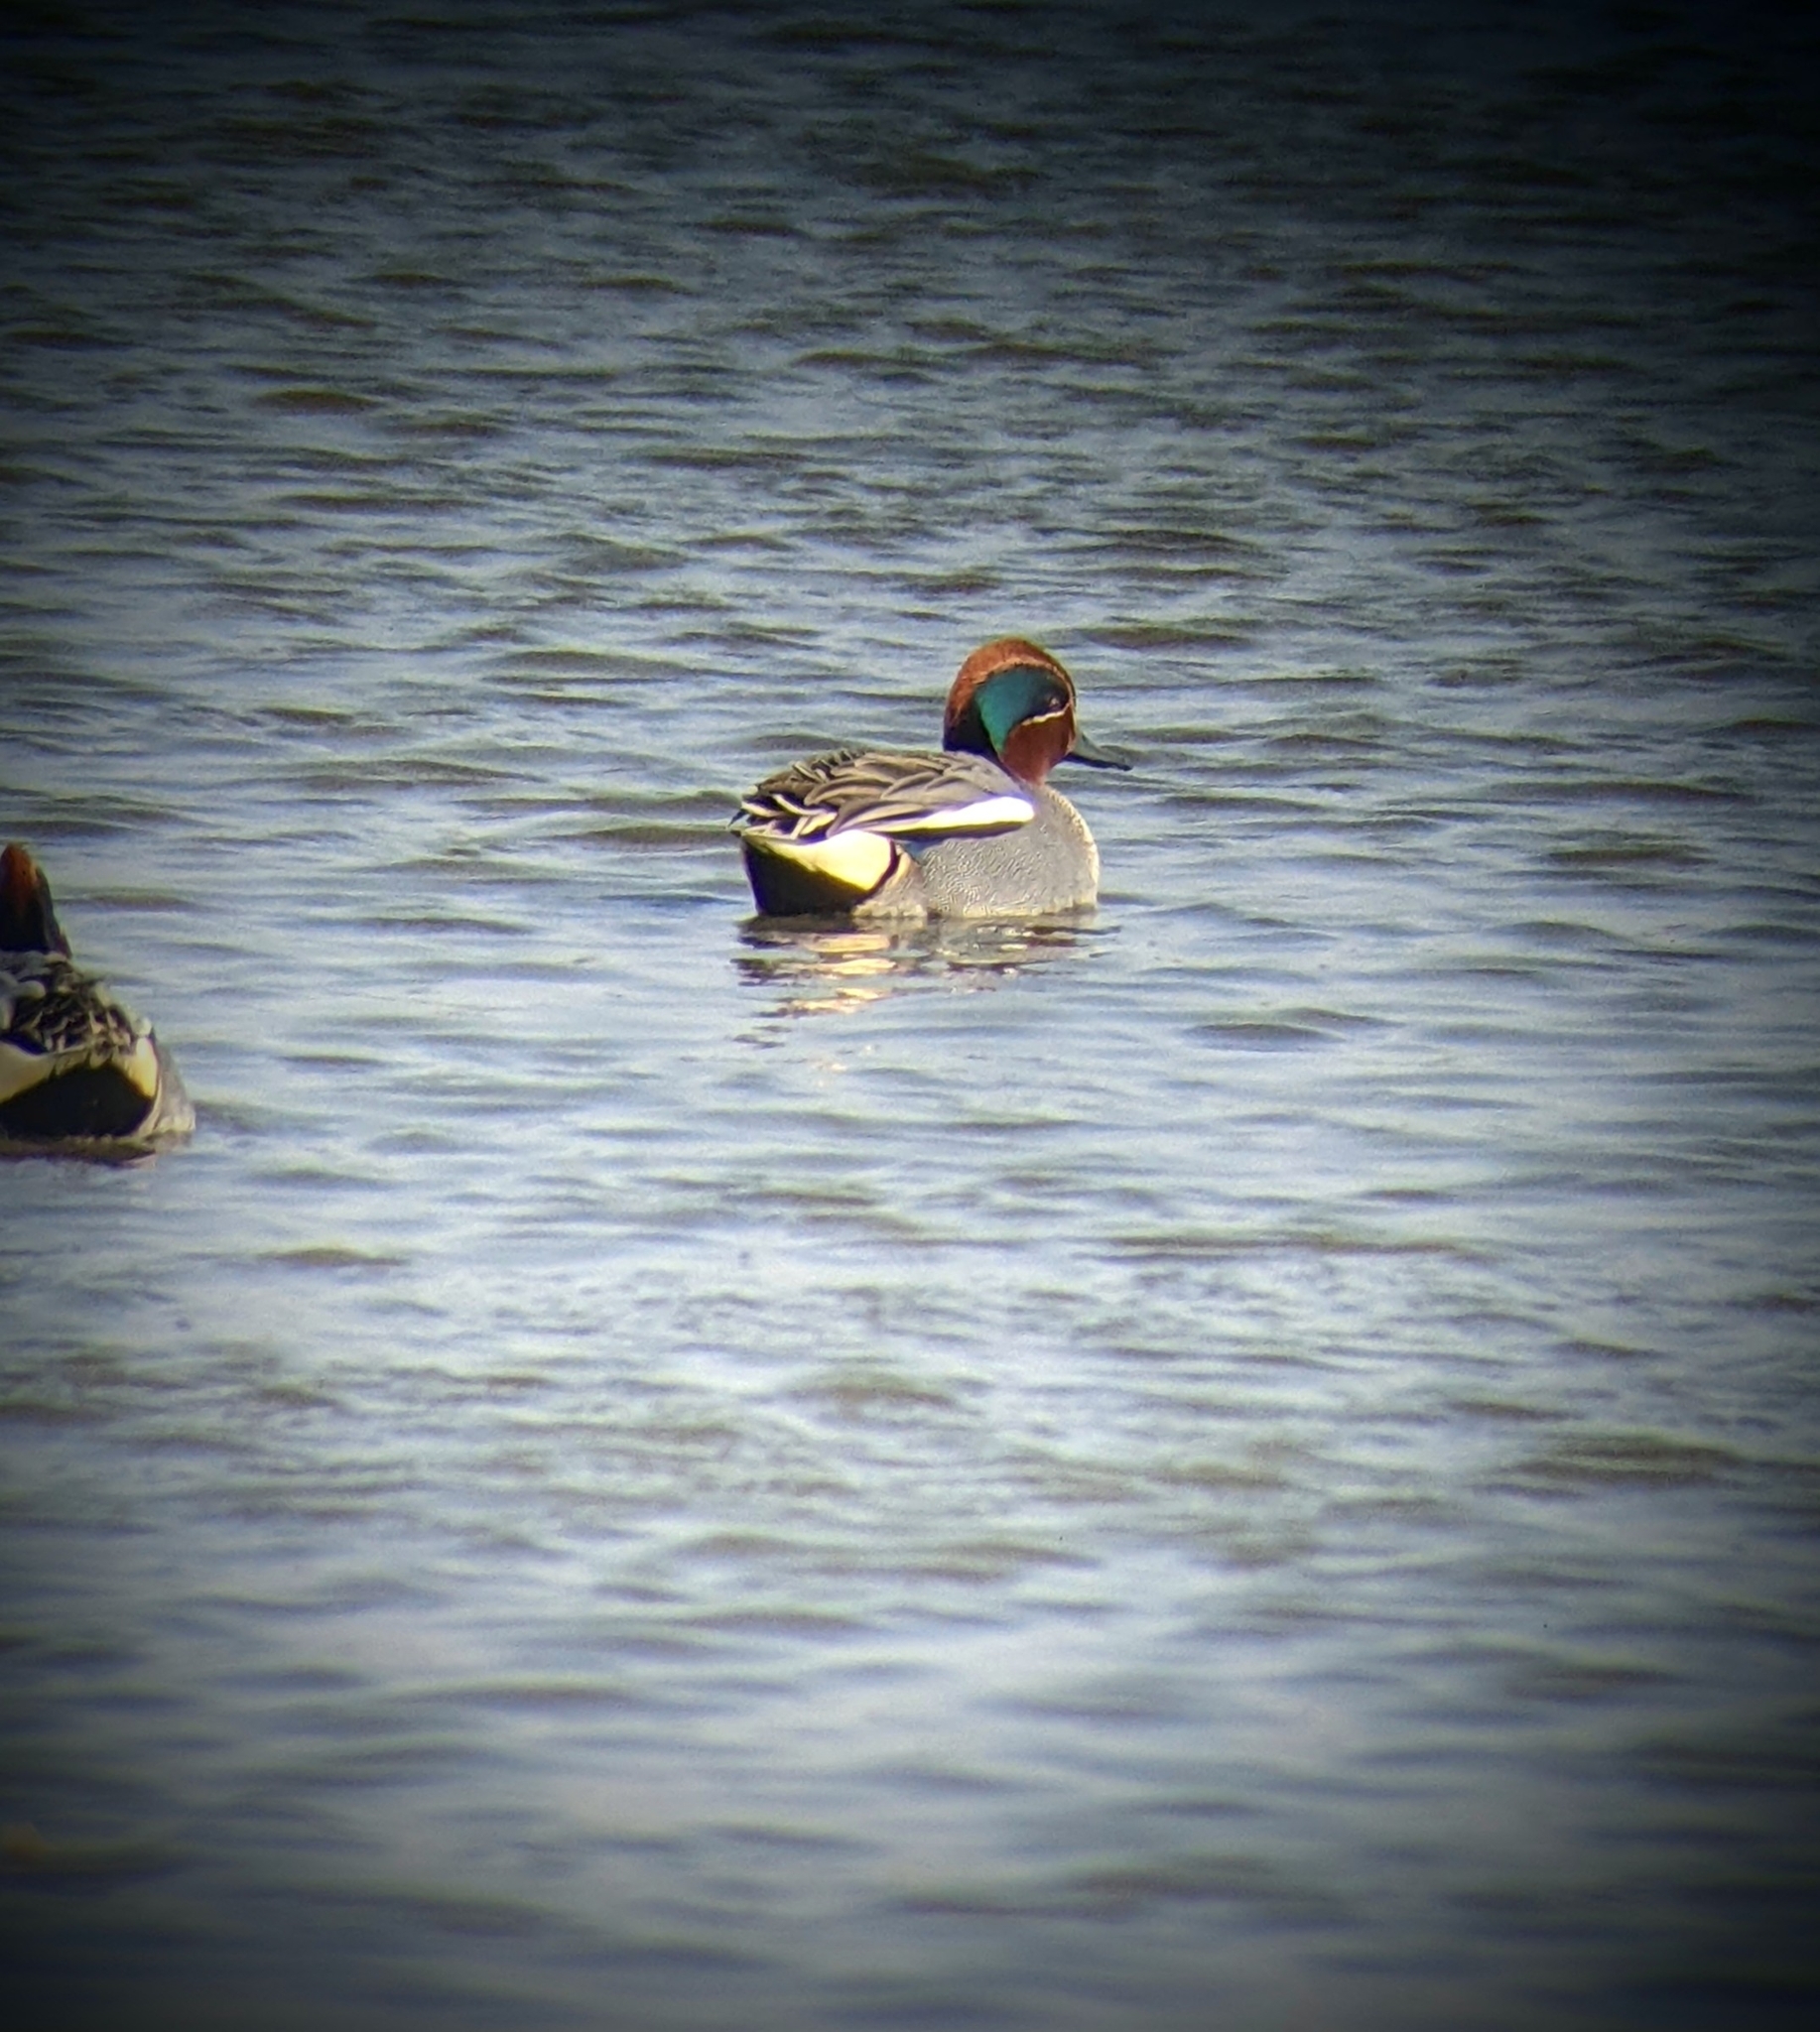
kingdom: Animalia
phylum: Chordata
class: Aves
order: Anseriformes
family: Anatidae
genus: Anas
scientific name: Anas crecca
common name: Eurasian teal
